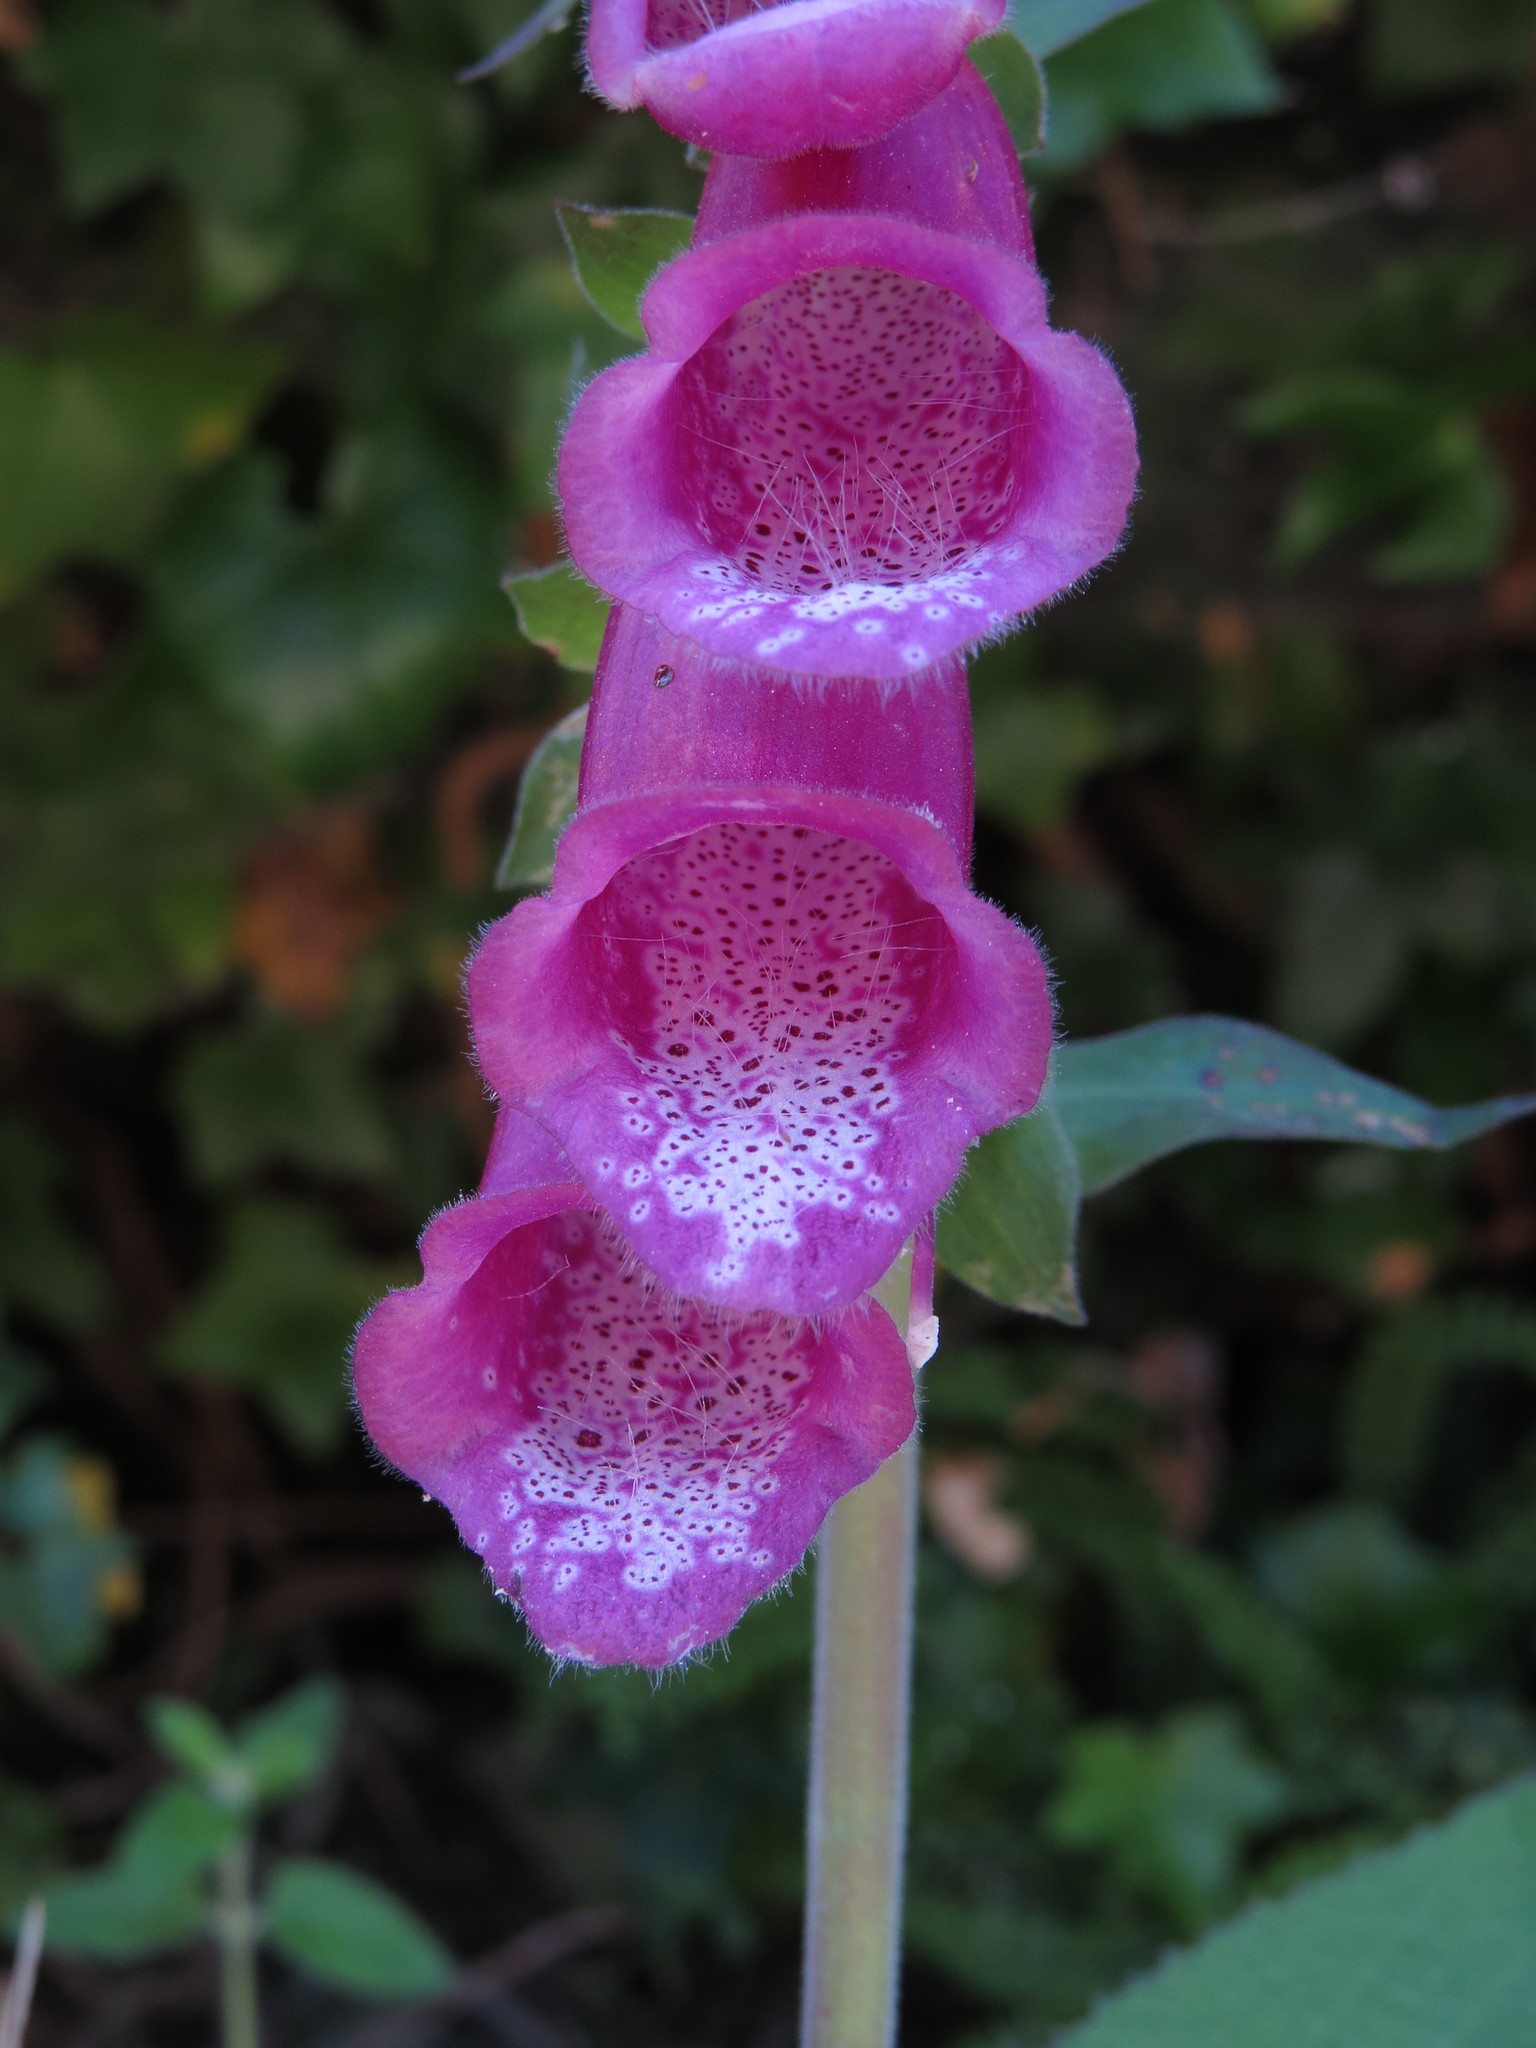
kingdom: Plantae
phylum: Tracheophyta
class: Magnoliopsida
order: Lamiales
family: Plantaginaceae
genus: Digitalis
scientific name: Digitalis purpurea
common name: Foxglove
